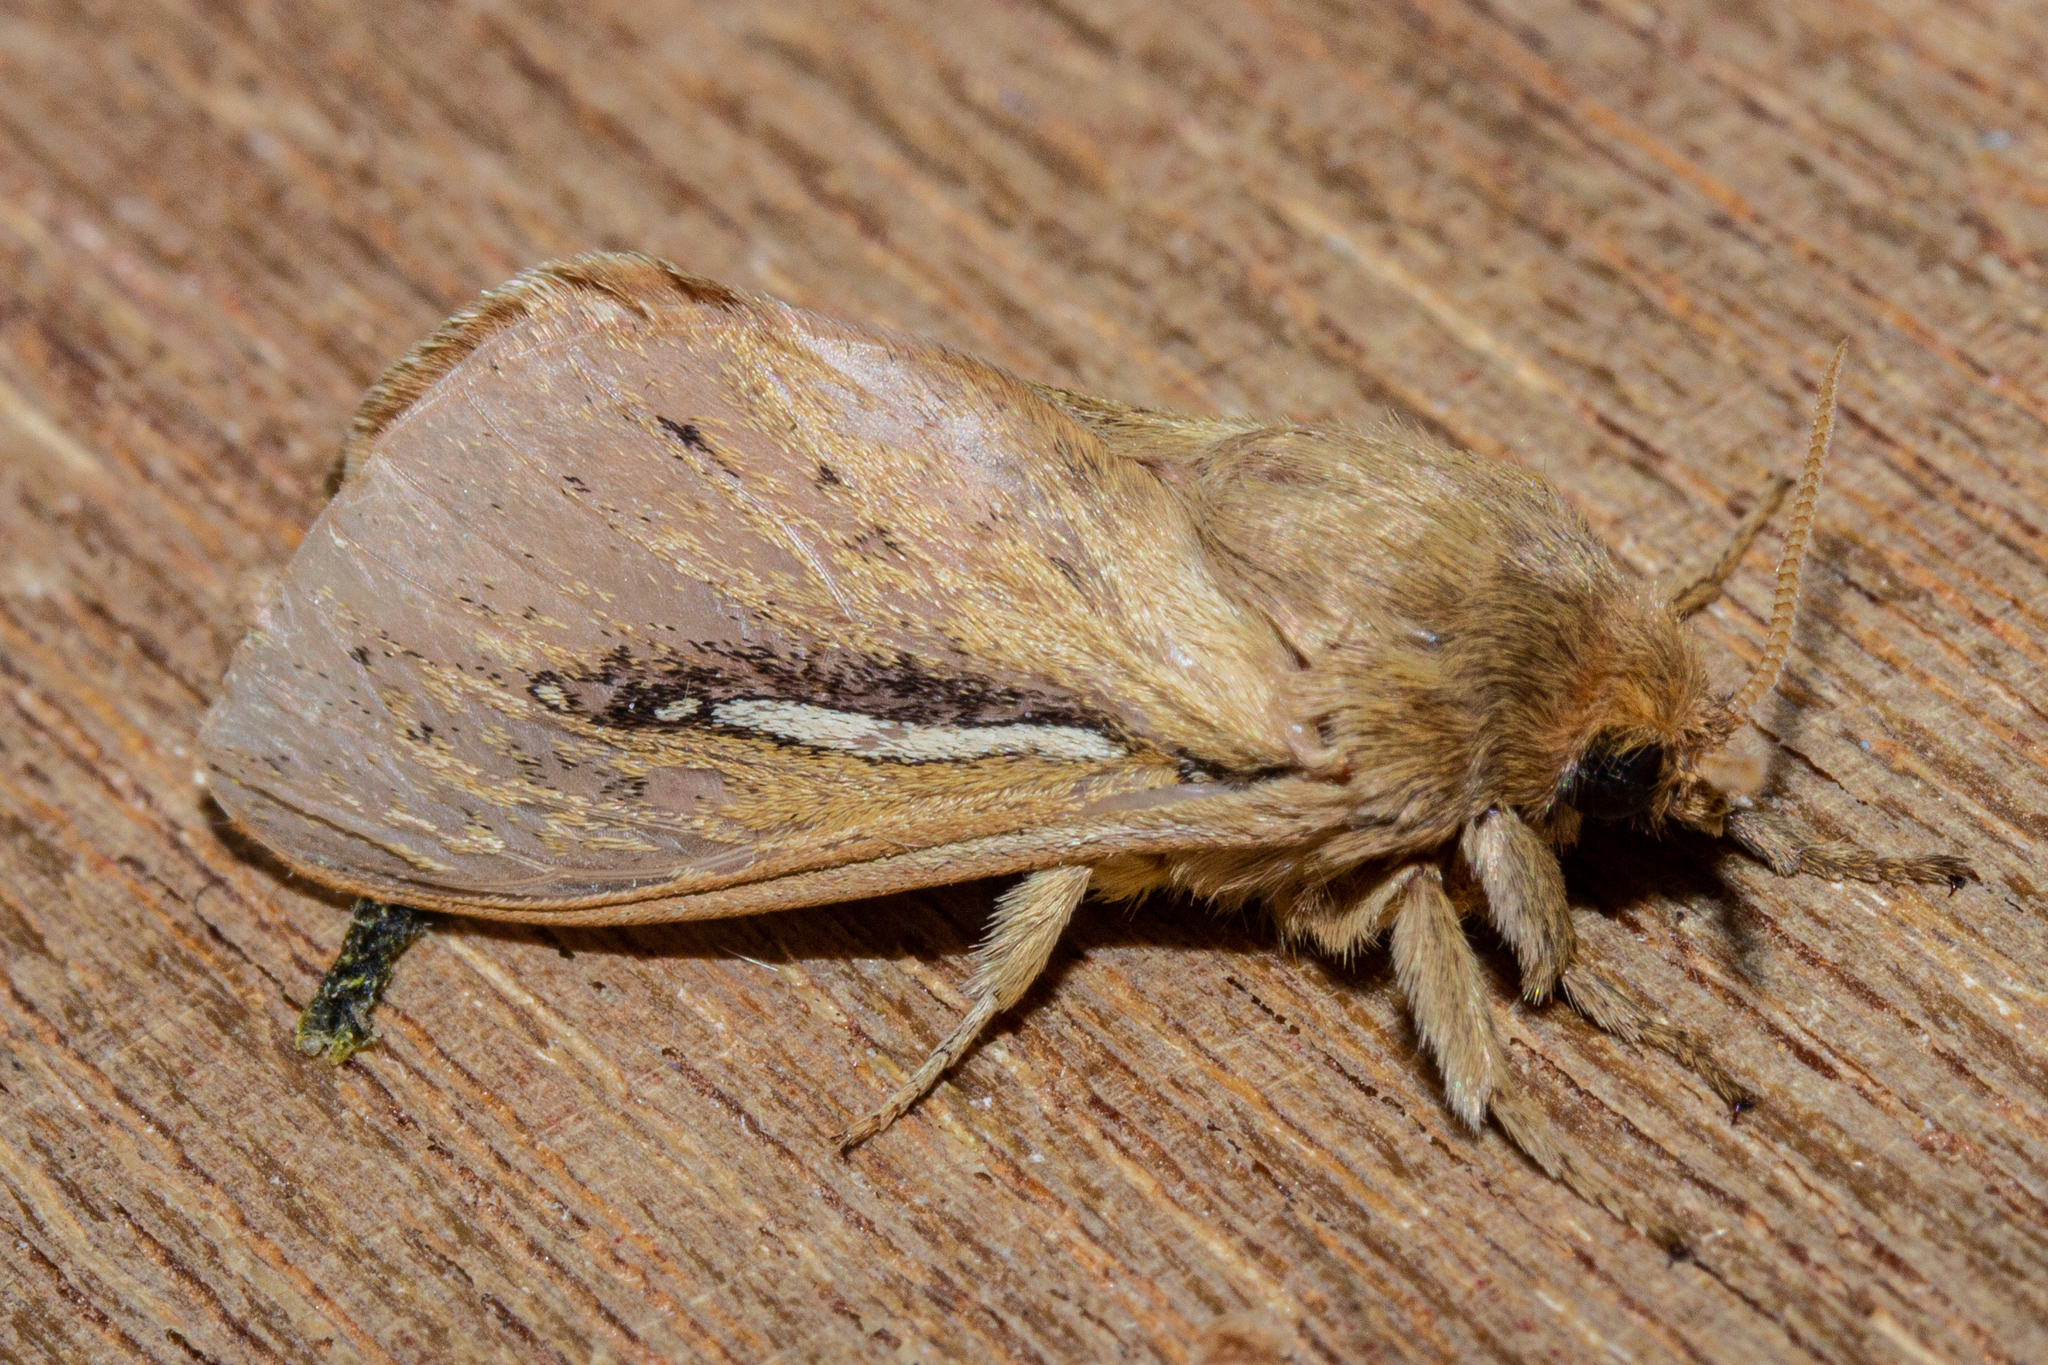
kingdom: Animalia
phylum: Arthropoda
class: Insecta
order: Lepidoptera
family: Hepialidae
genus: Wiseana
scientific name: Wiseana umbraculatus
